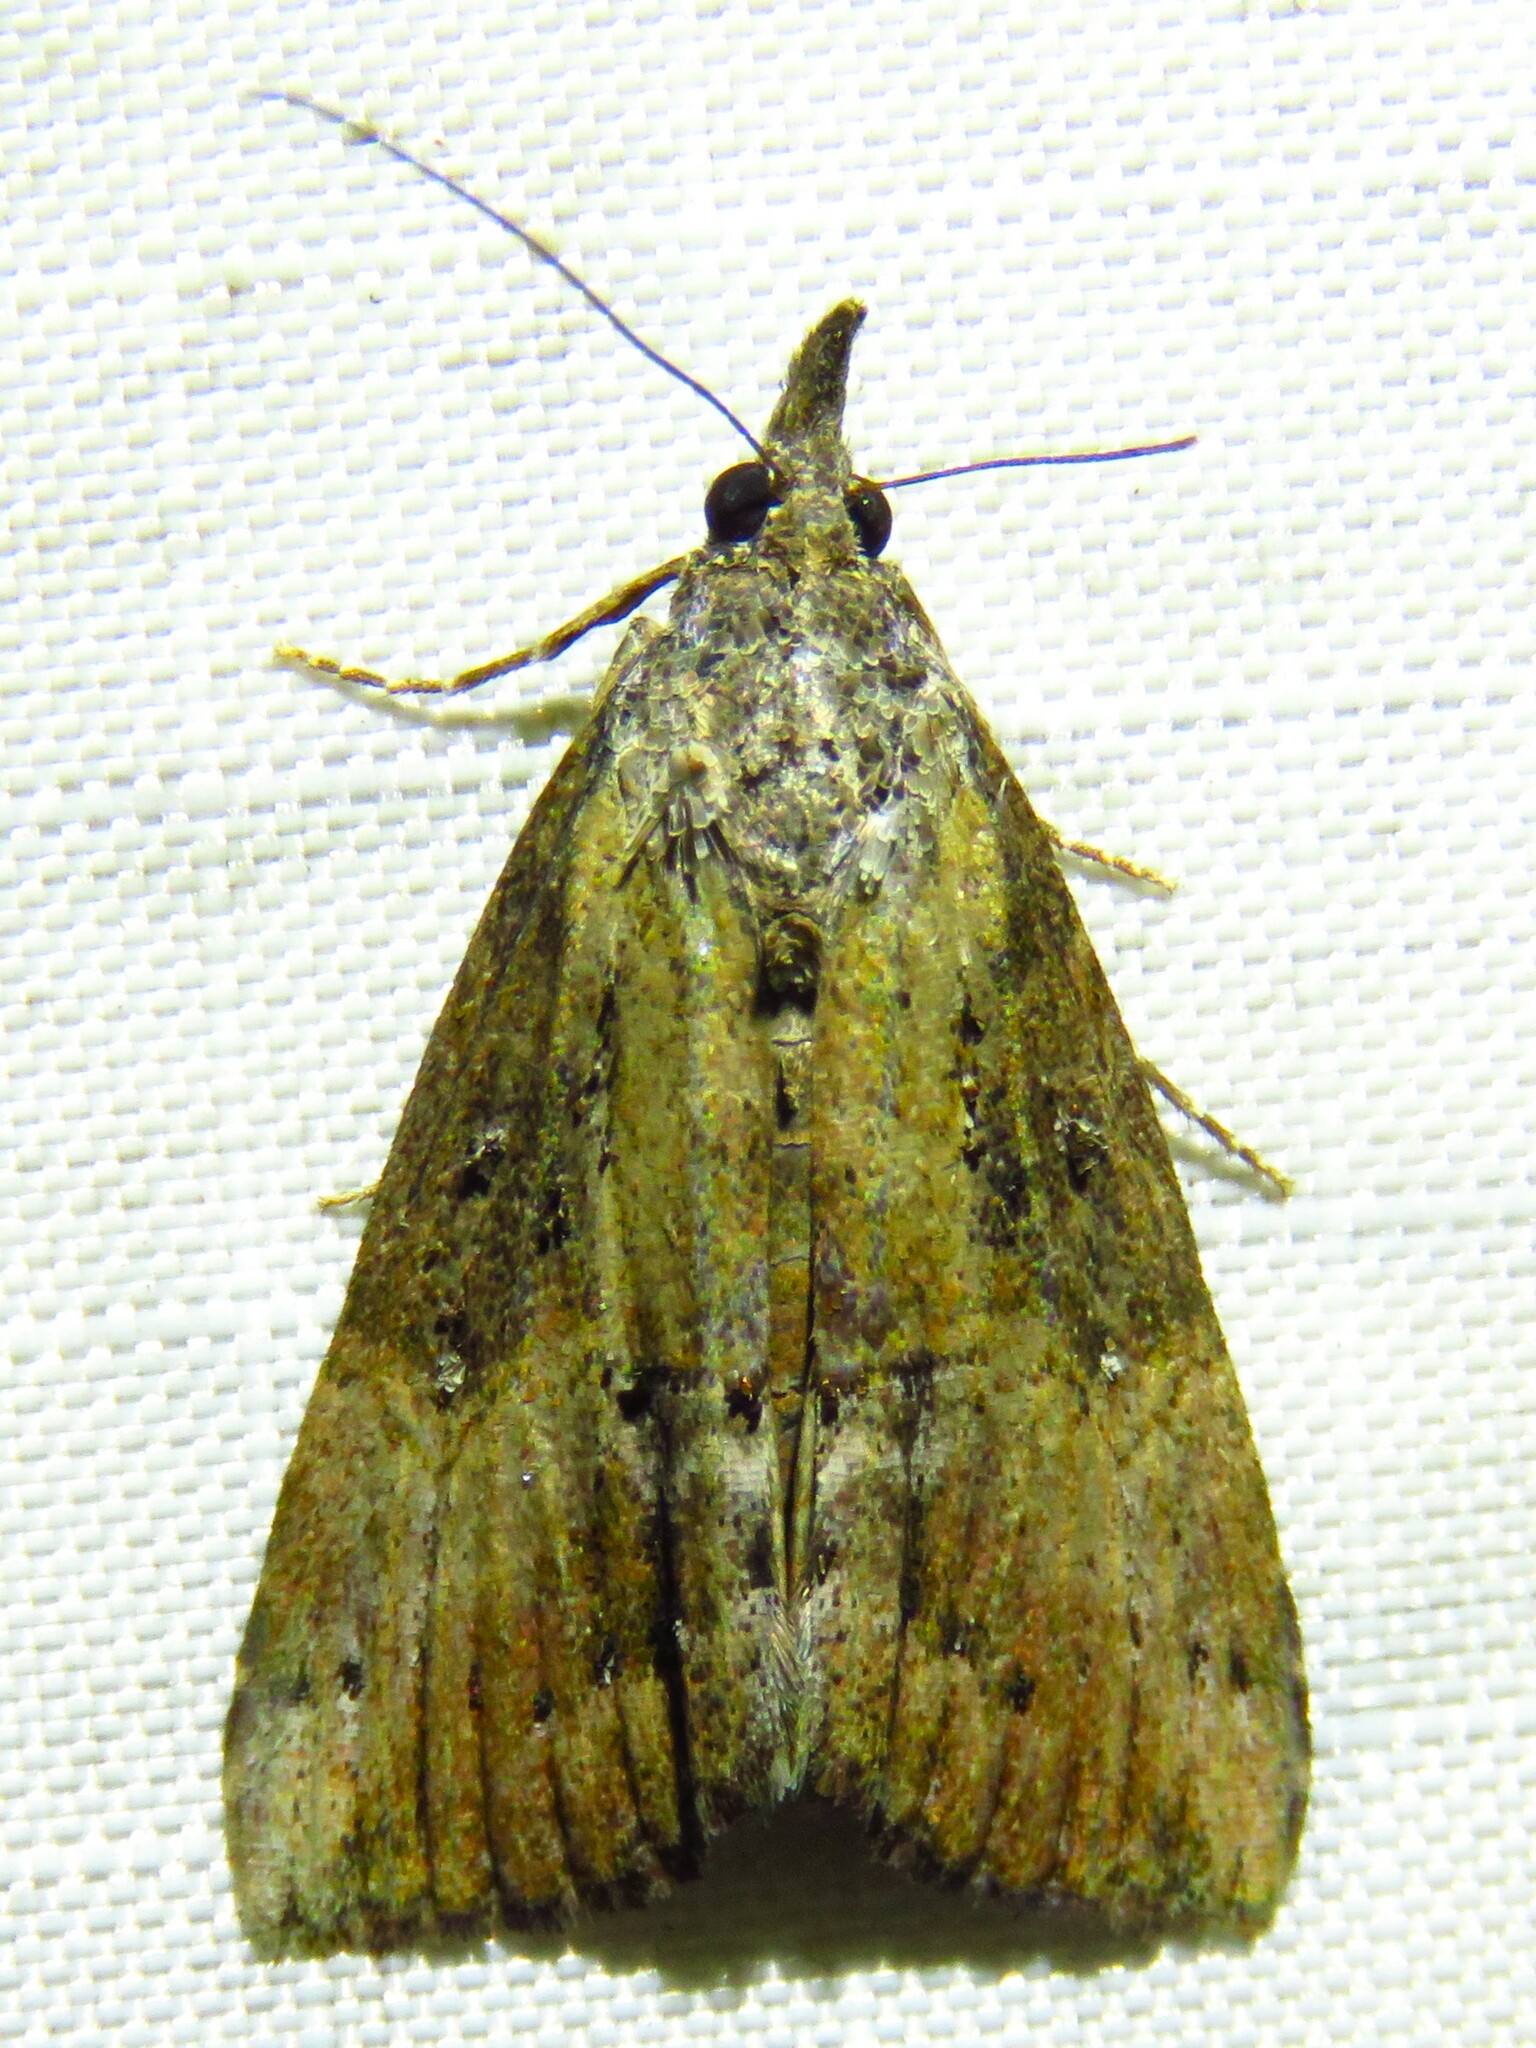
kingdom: Animalia
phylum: Arthropoda
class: Insecta
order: Lepidoptera
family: Erebidae
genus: Hypena
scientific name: Hypena scabra
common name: Green cloverworm
